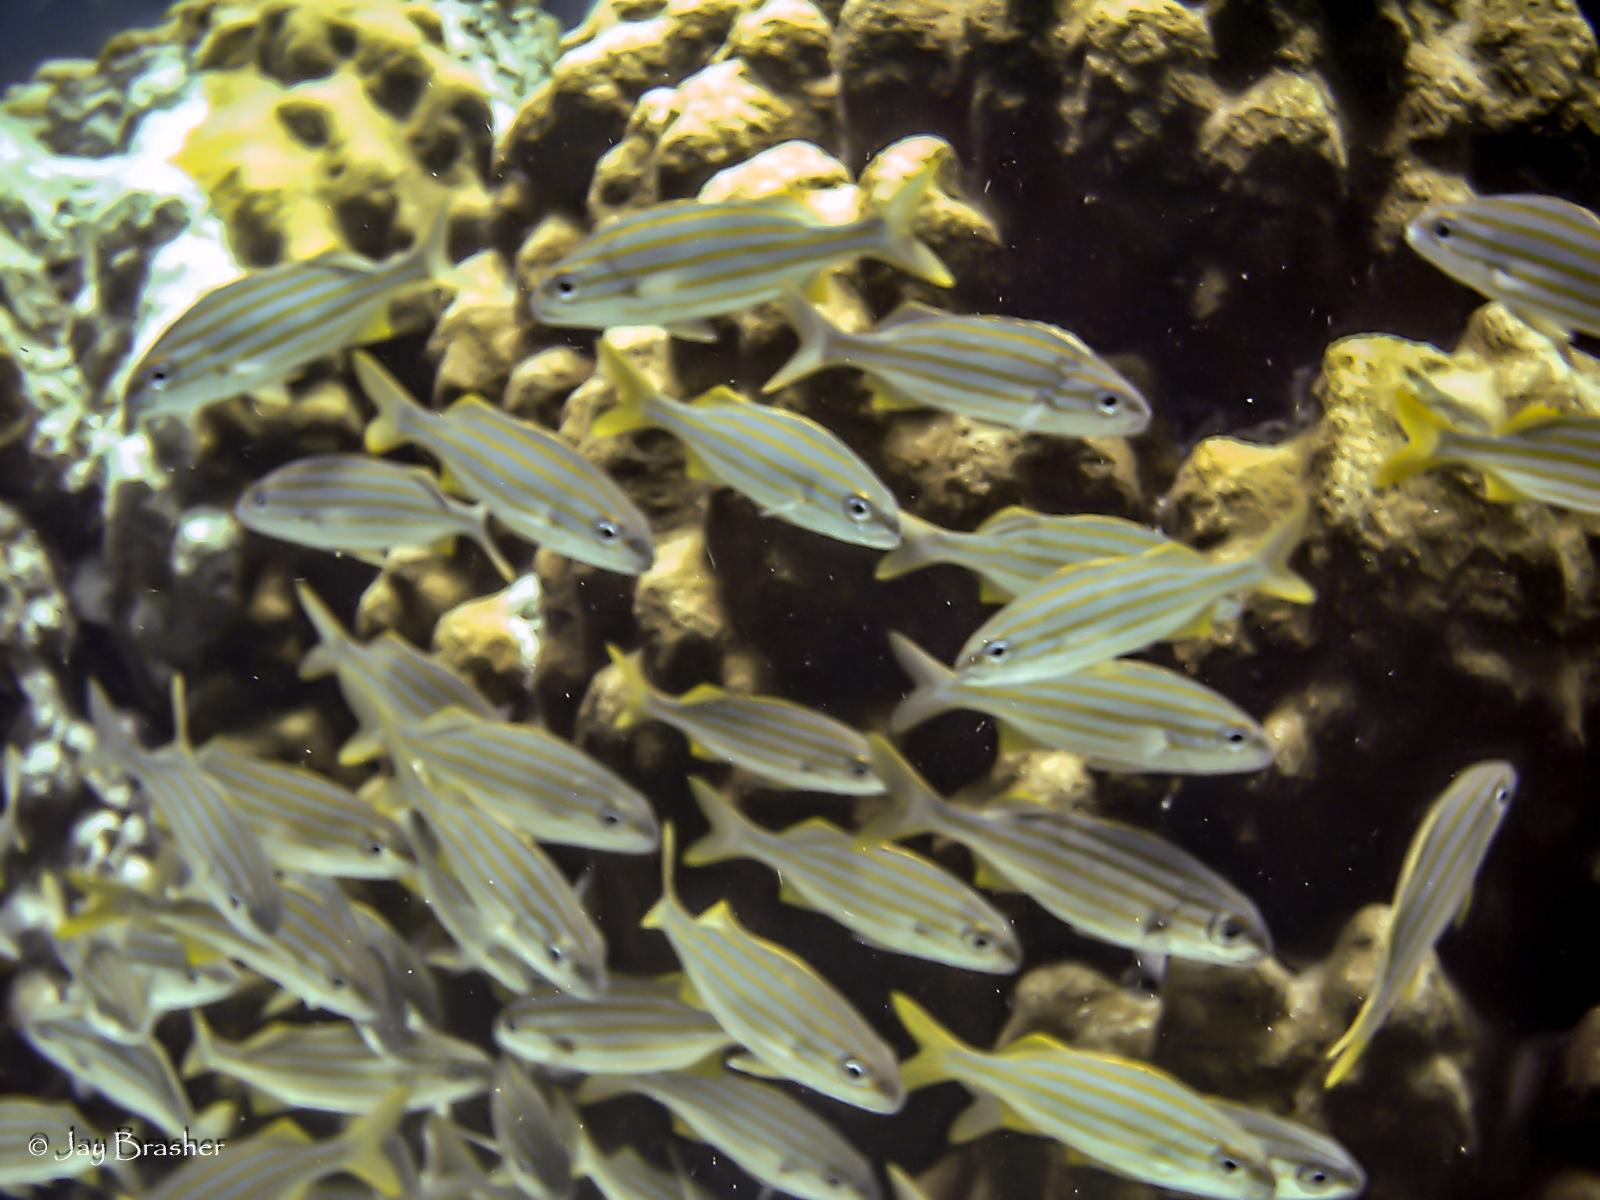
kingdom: Animalia
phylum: Chordata
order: Perciformes
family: Haemulidae
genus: Haemulon
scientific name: Haemulon chrysargyreum
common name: Smallmouth grunt
